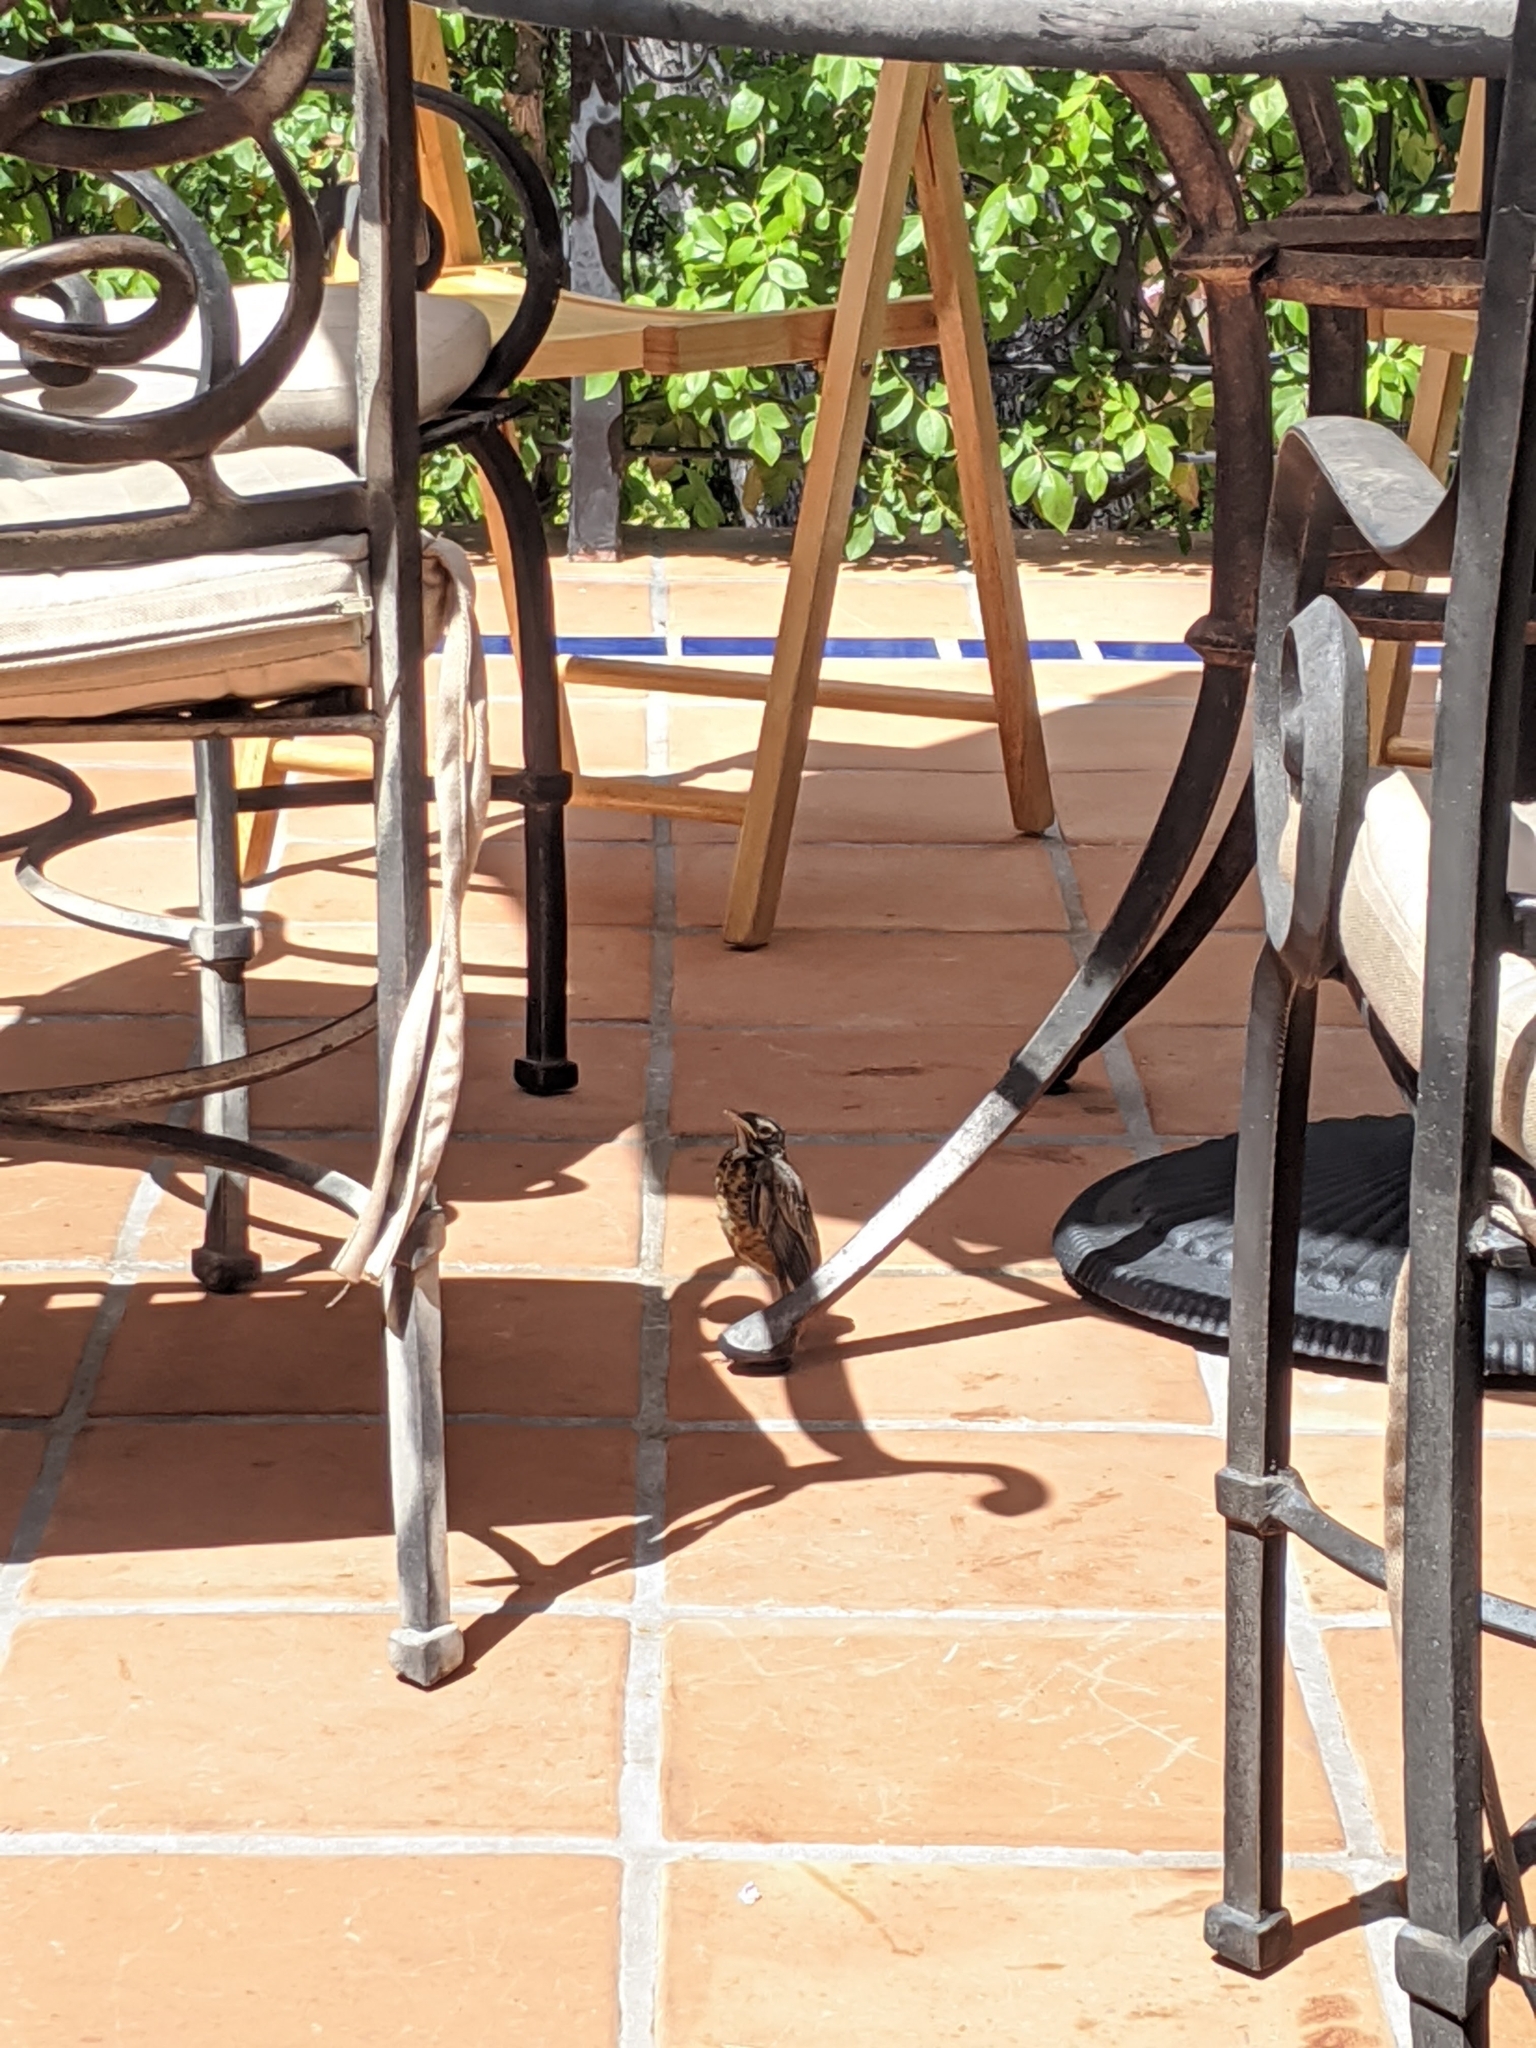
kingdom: Animalia
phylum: Chordata
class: Aves
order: Passeriformes
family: Turdidae
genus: Turdus
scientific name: Turdus migratorius
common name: American robin
